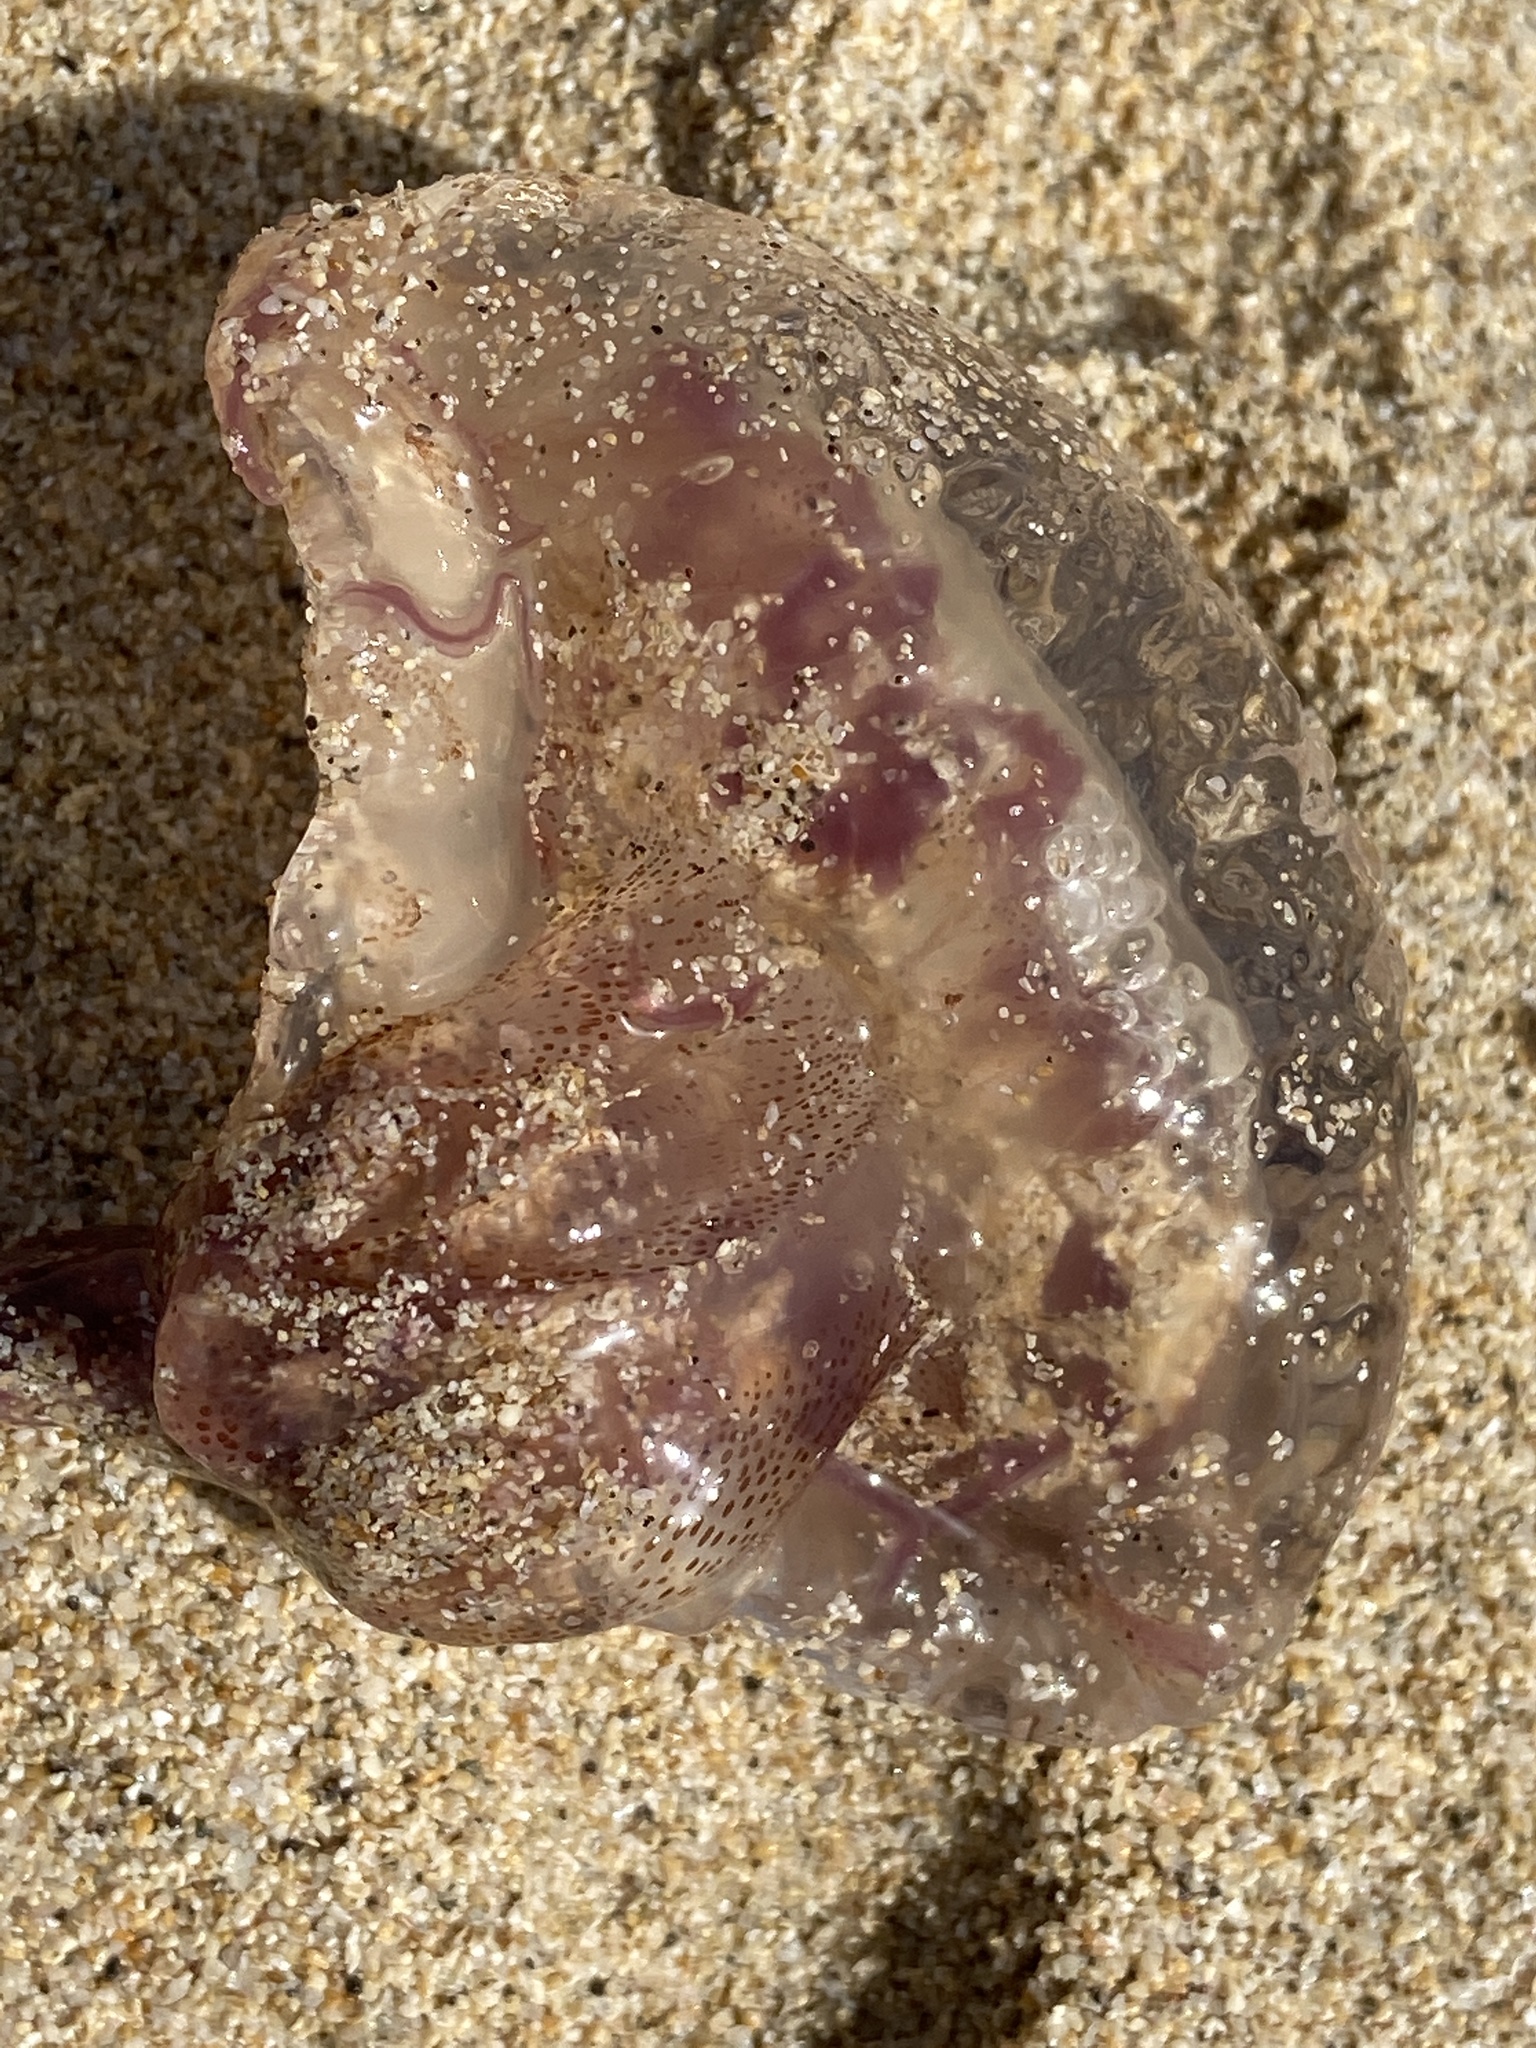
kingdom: Animalia
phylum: Cnidaria
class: Scyphozoa
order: Semaeostomeae
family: Pelagiidae
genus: Pelagia
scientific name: Pelagia noctiluca
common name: Mauve stinger
